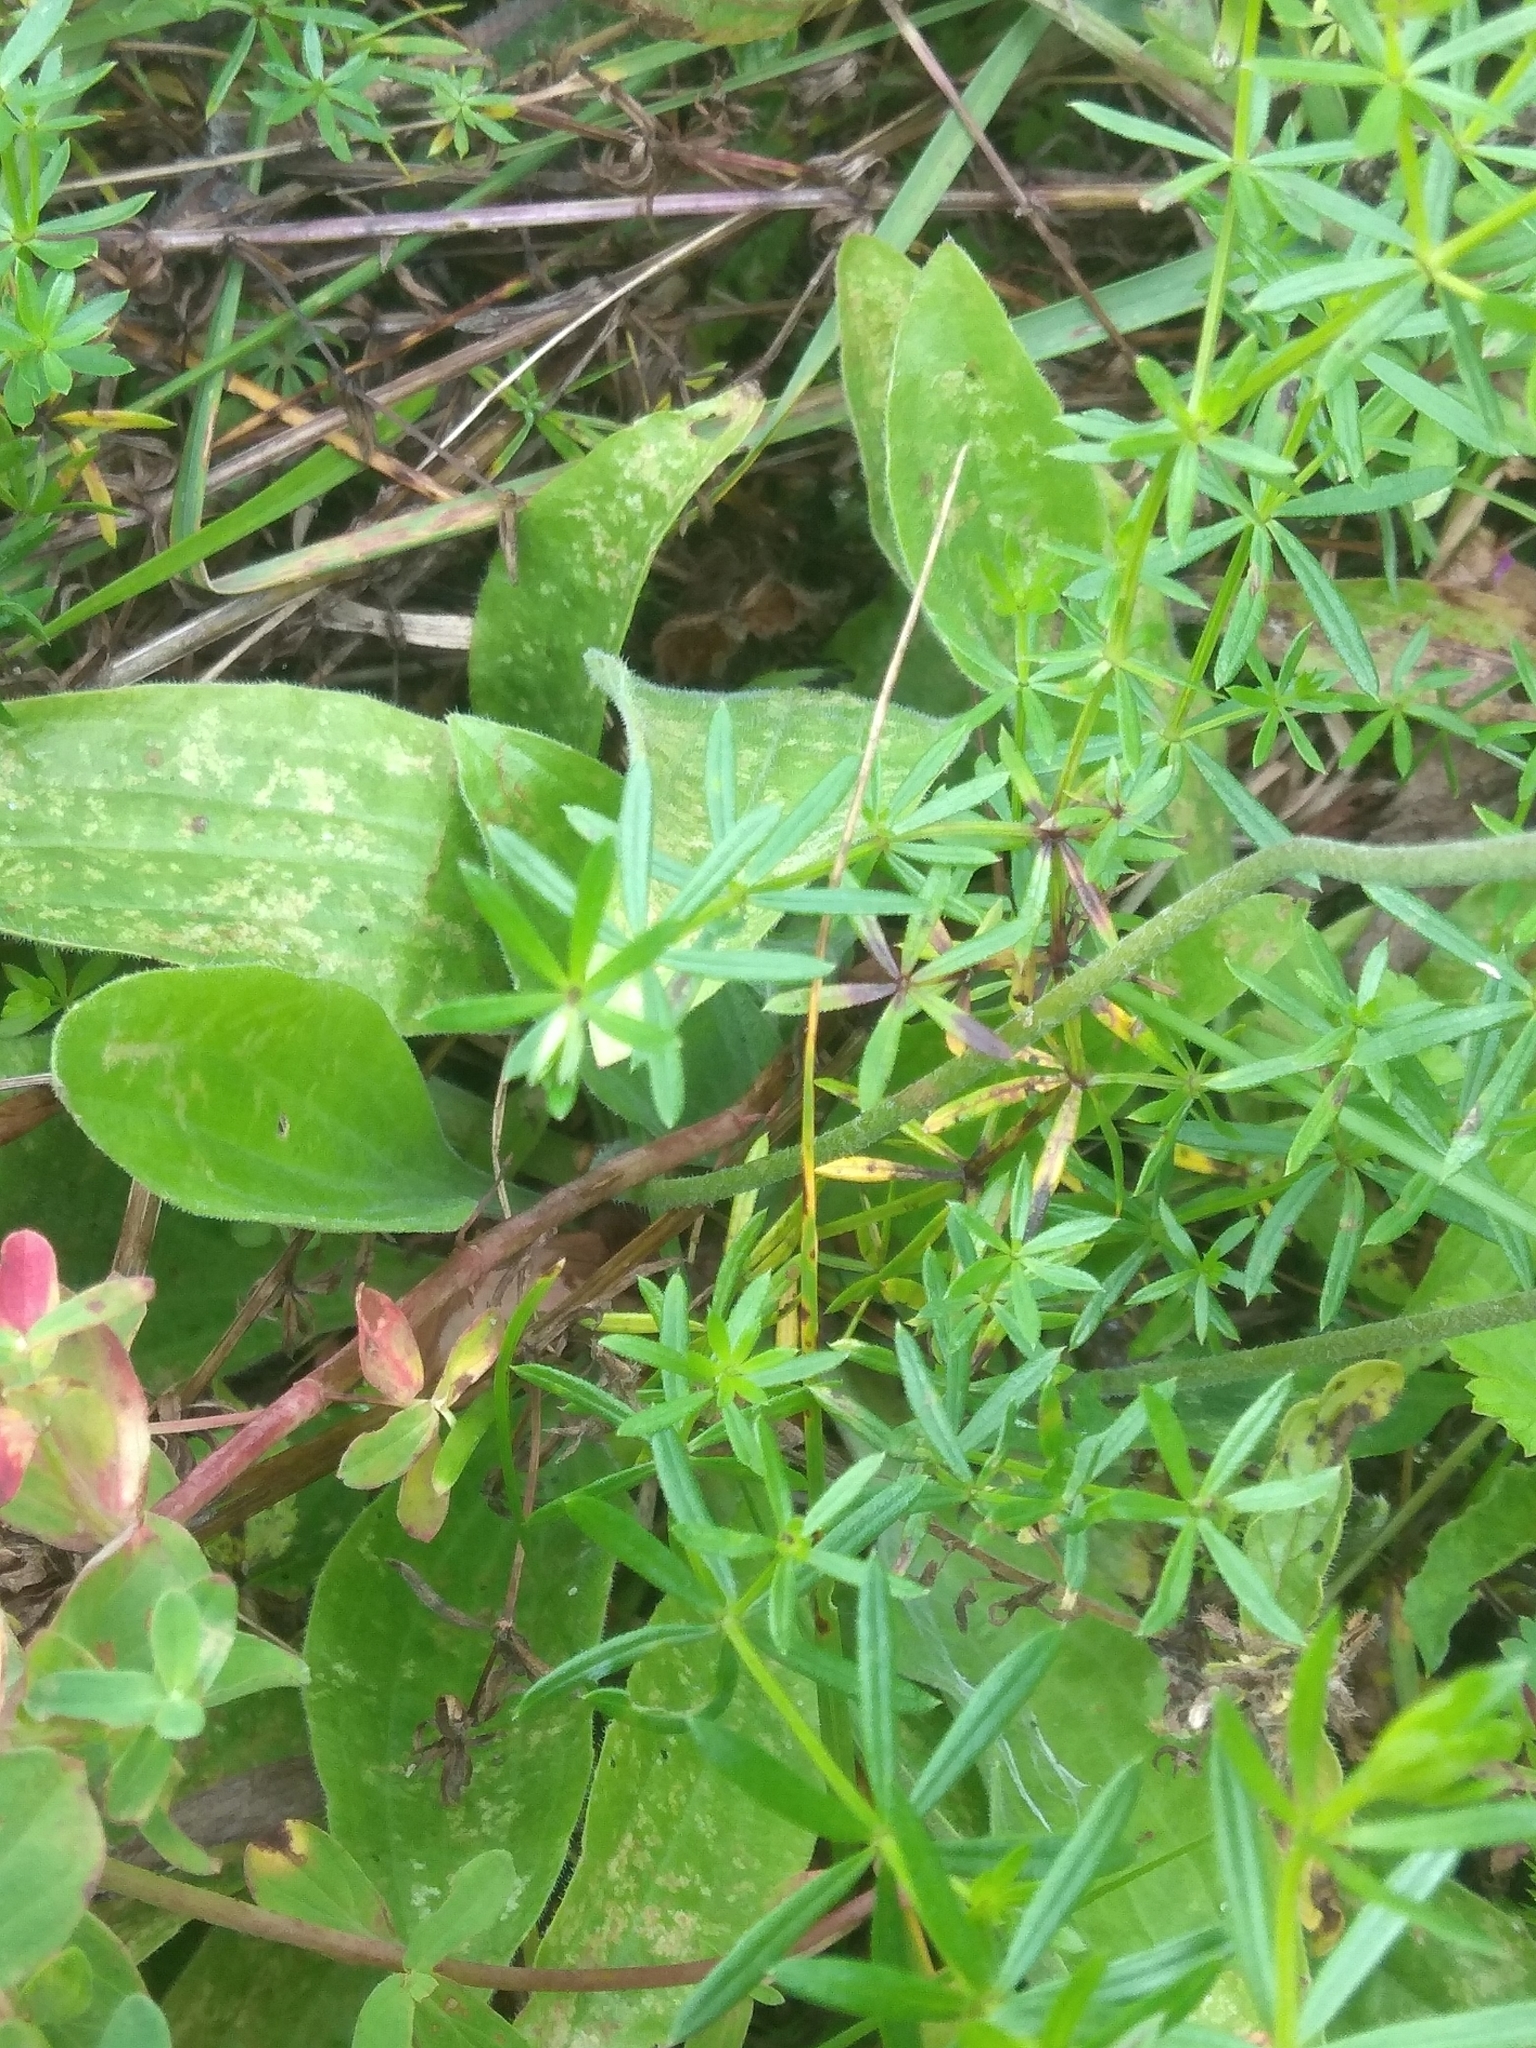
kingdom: Plantae
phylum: Tracheophyta
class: Magnoliopsida
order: Lamiales
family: Plantaginaceae
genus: Plantago
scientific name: Plantago media
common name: Hoary plantain
